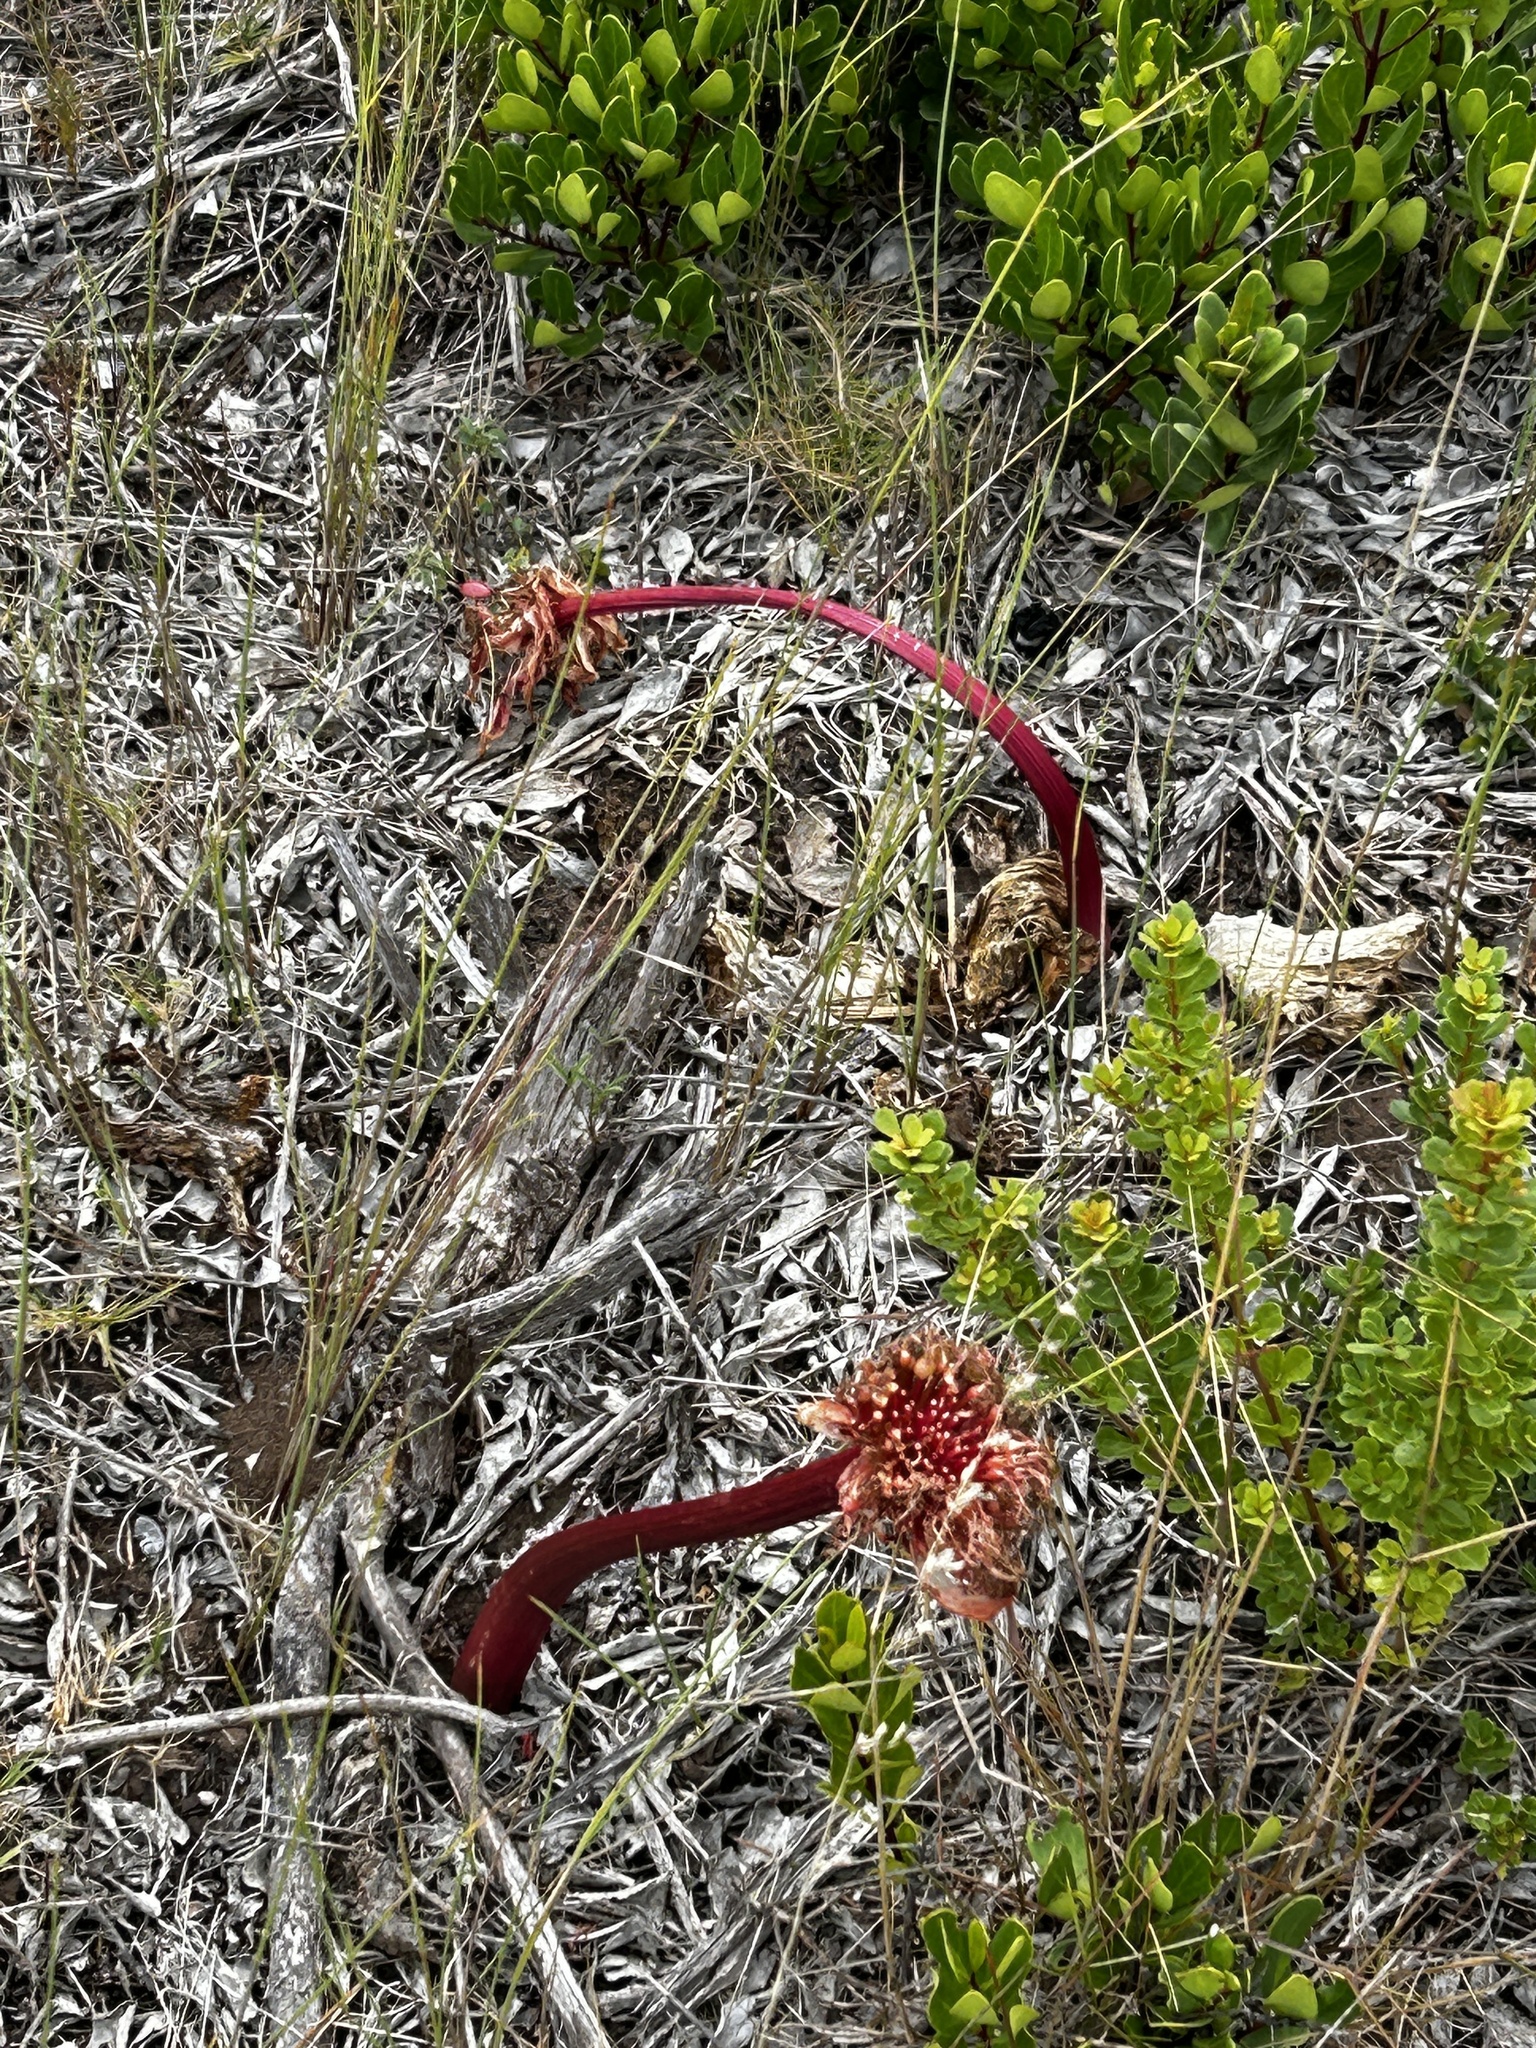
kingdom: Plantae
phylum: Tracheophyta
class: Liliopsida
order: Asparagales
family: Amaryllidaceae
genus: Haemanthus
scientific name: Haemanthus sanguineus
